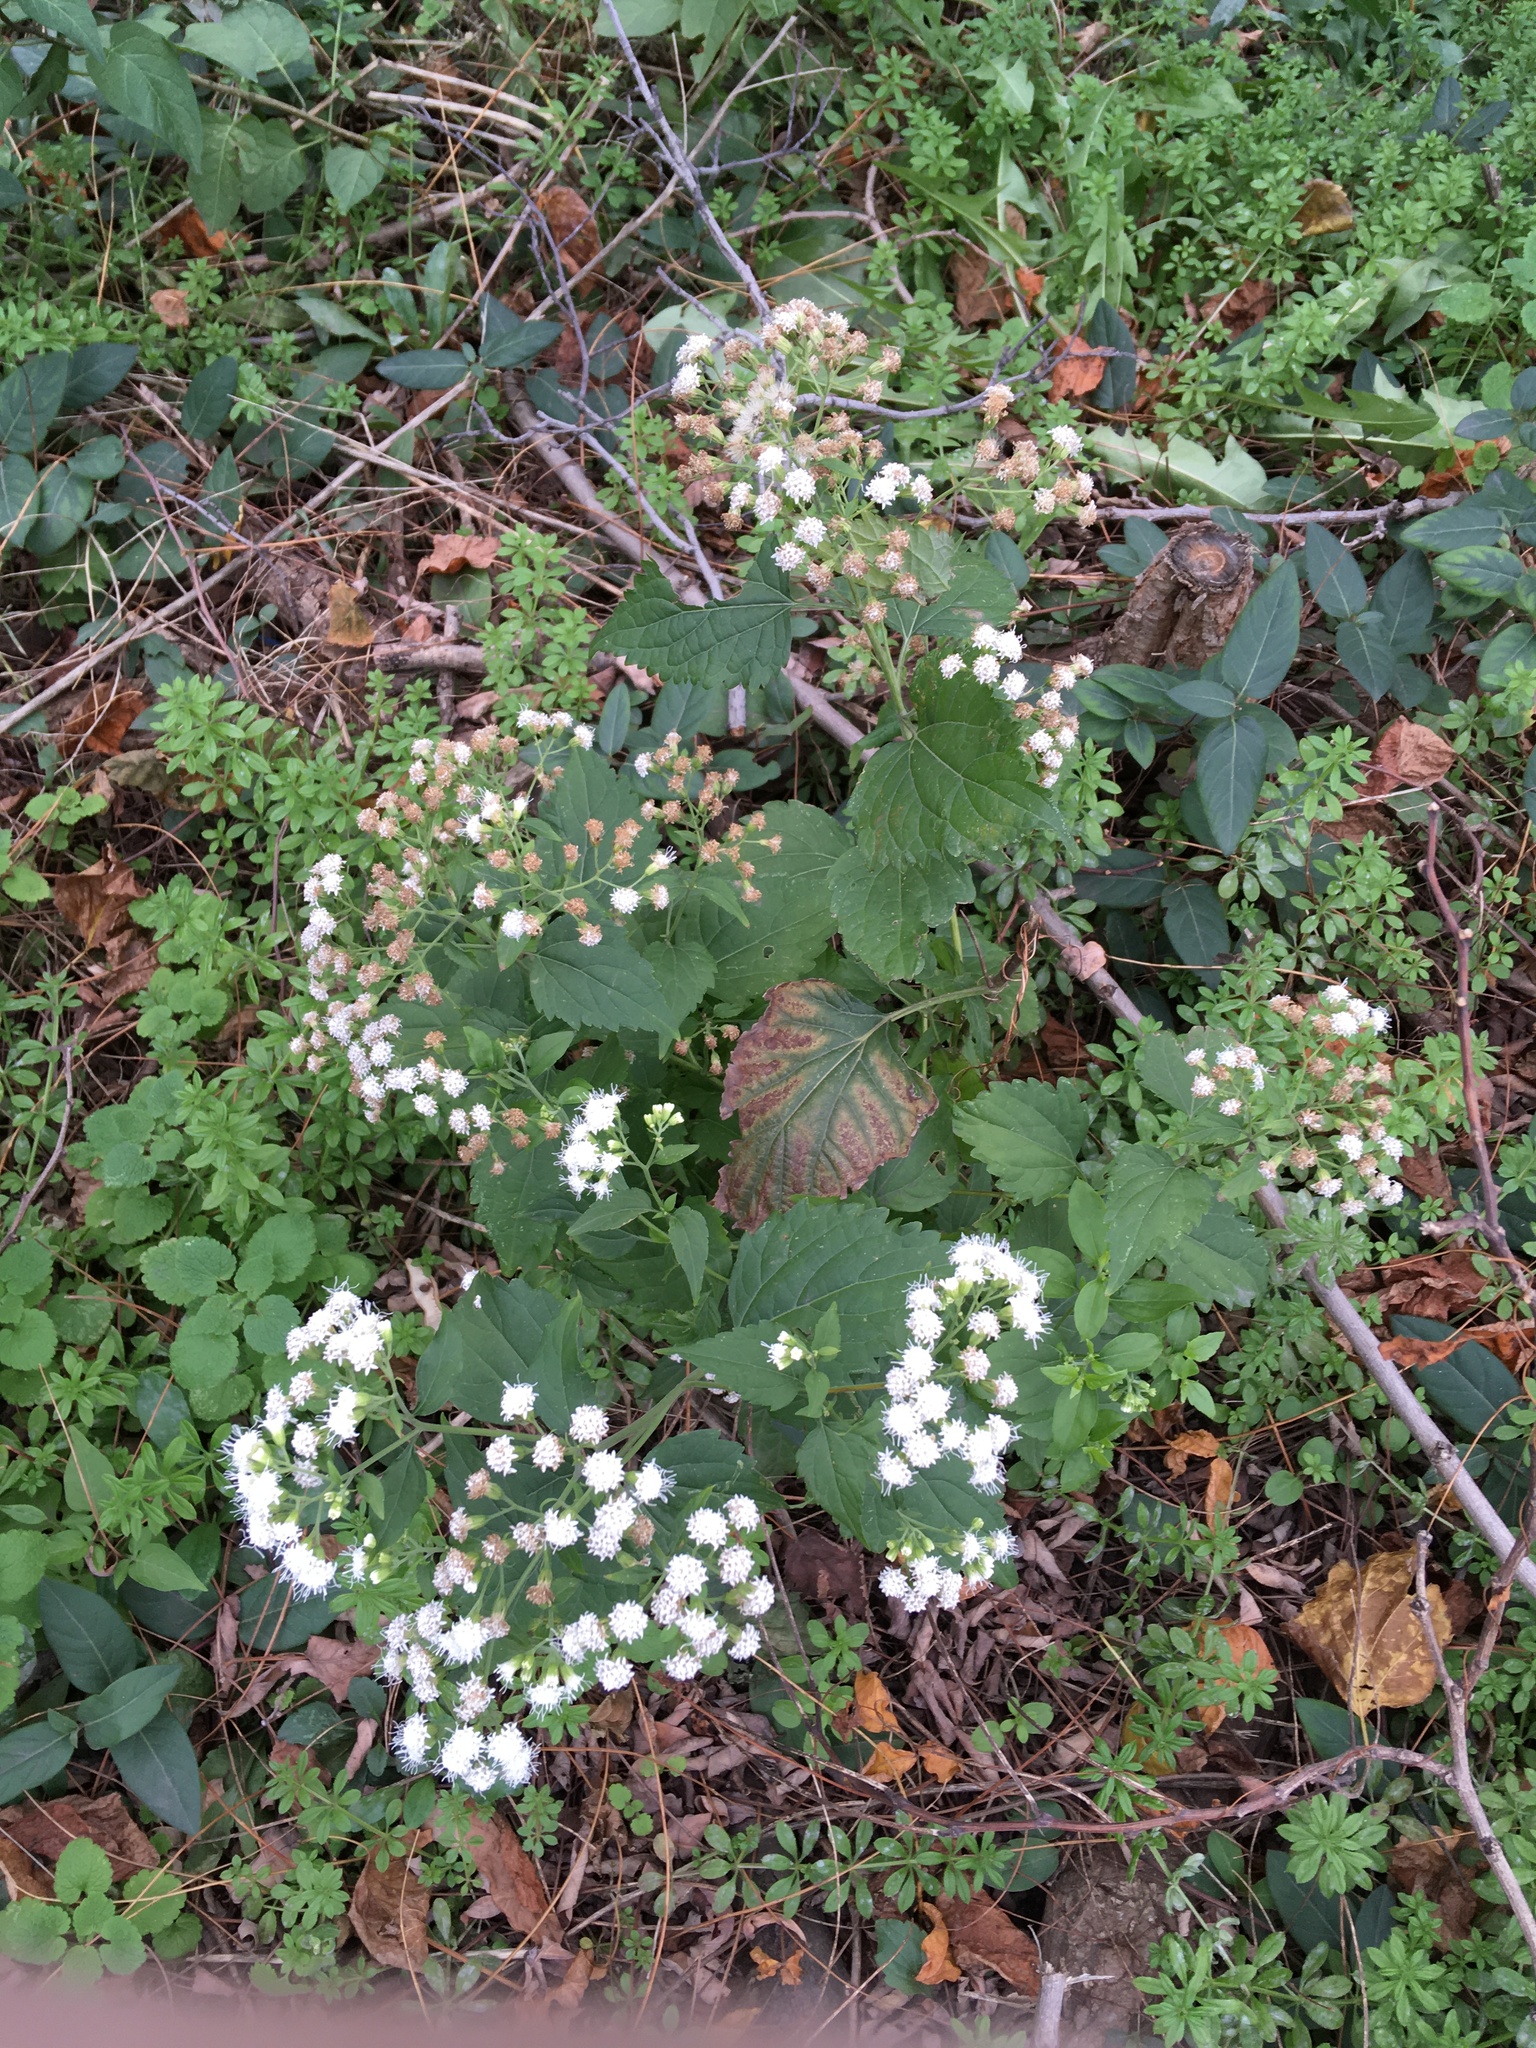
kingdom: Plantae
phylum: Tracheophyta
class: Magnoliopsida
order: Asterales
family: Asteraceae
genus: Ageratina
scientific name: Ageratina altissima
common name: White snakeroot
